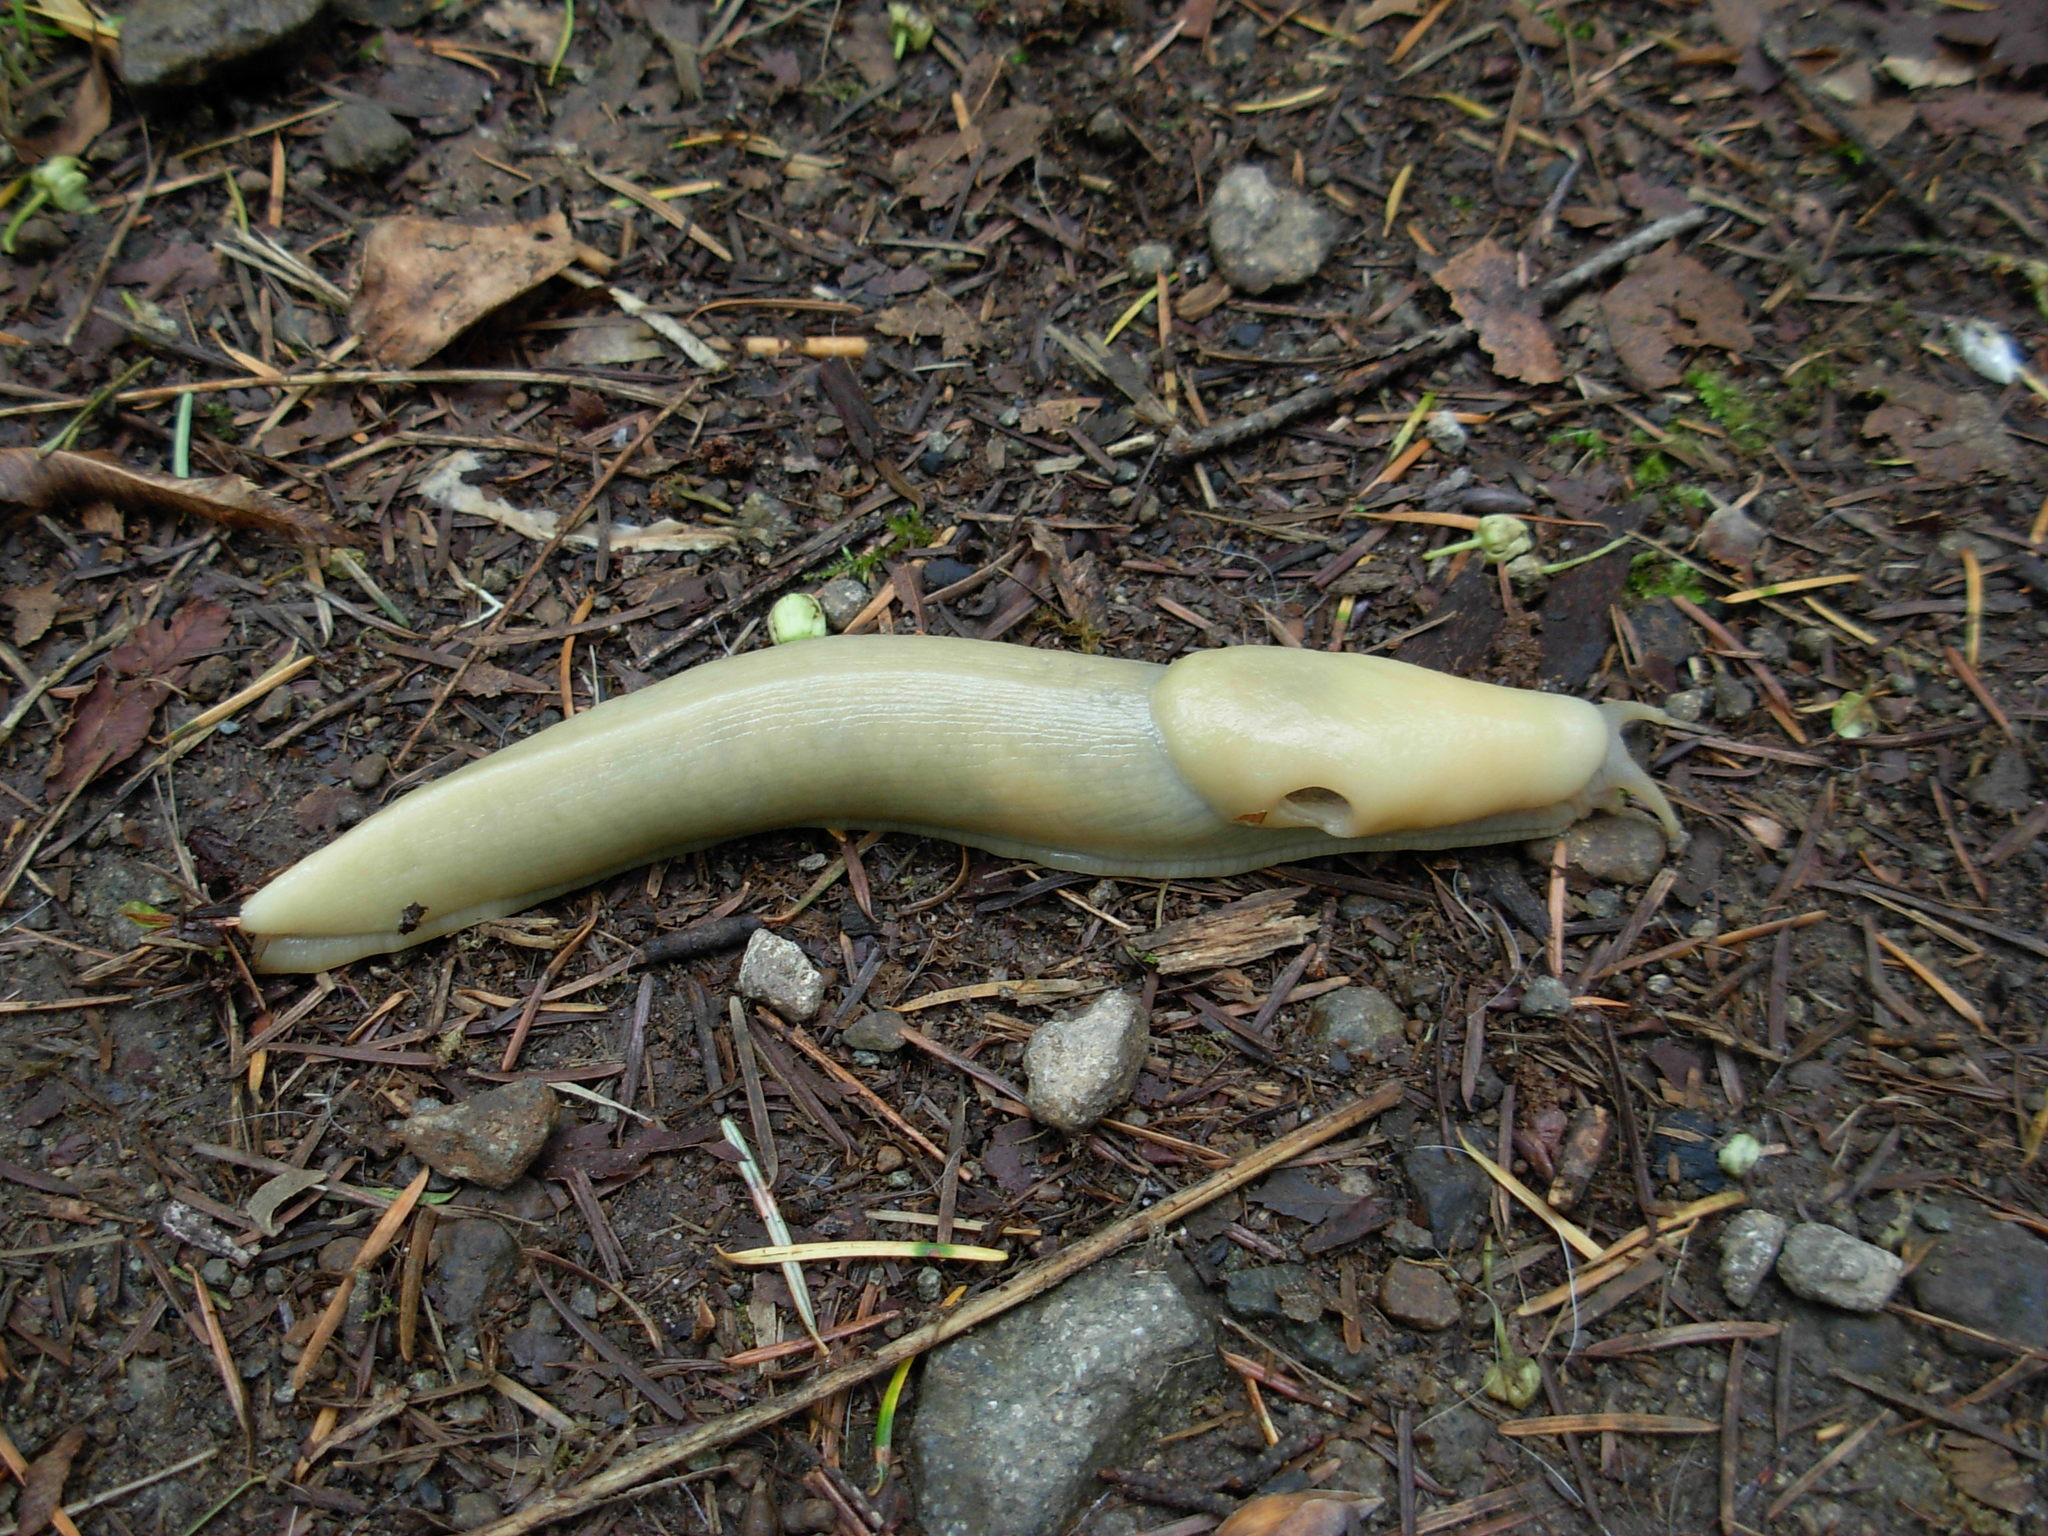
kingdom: Animalia
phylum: Mollusca
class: Gastropoda
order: Stylommatophora
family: Ariolimacidae
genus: Ariolimax
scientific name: Ariolimax columbianus
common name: Pacific banana slug
